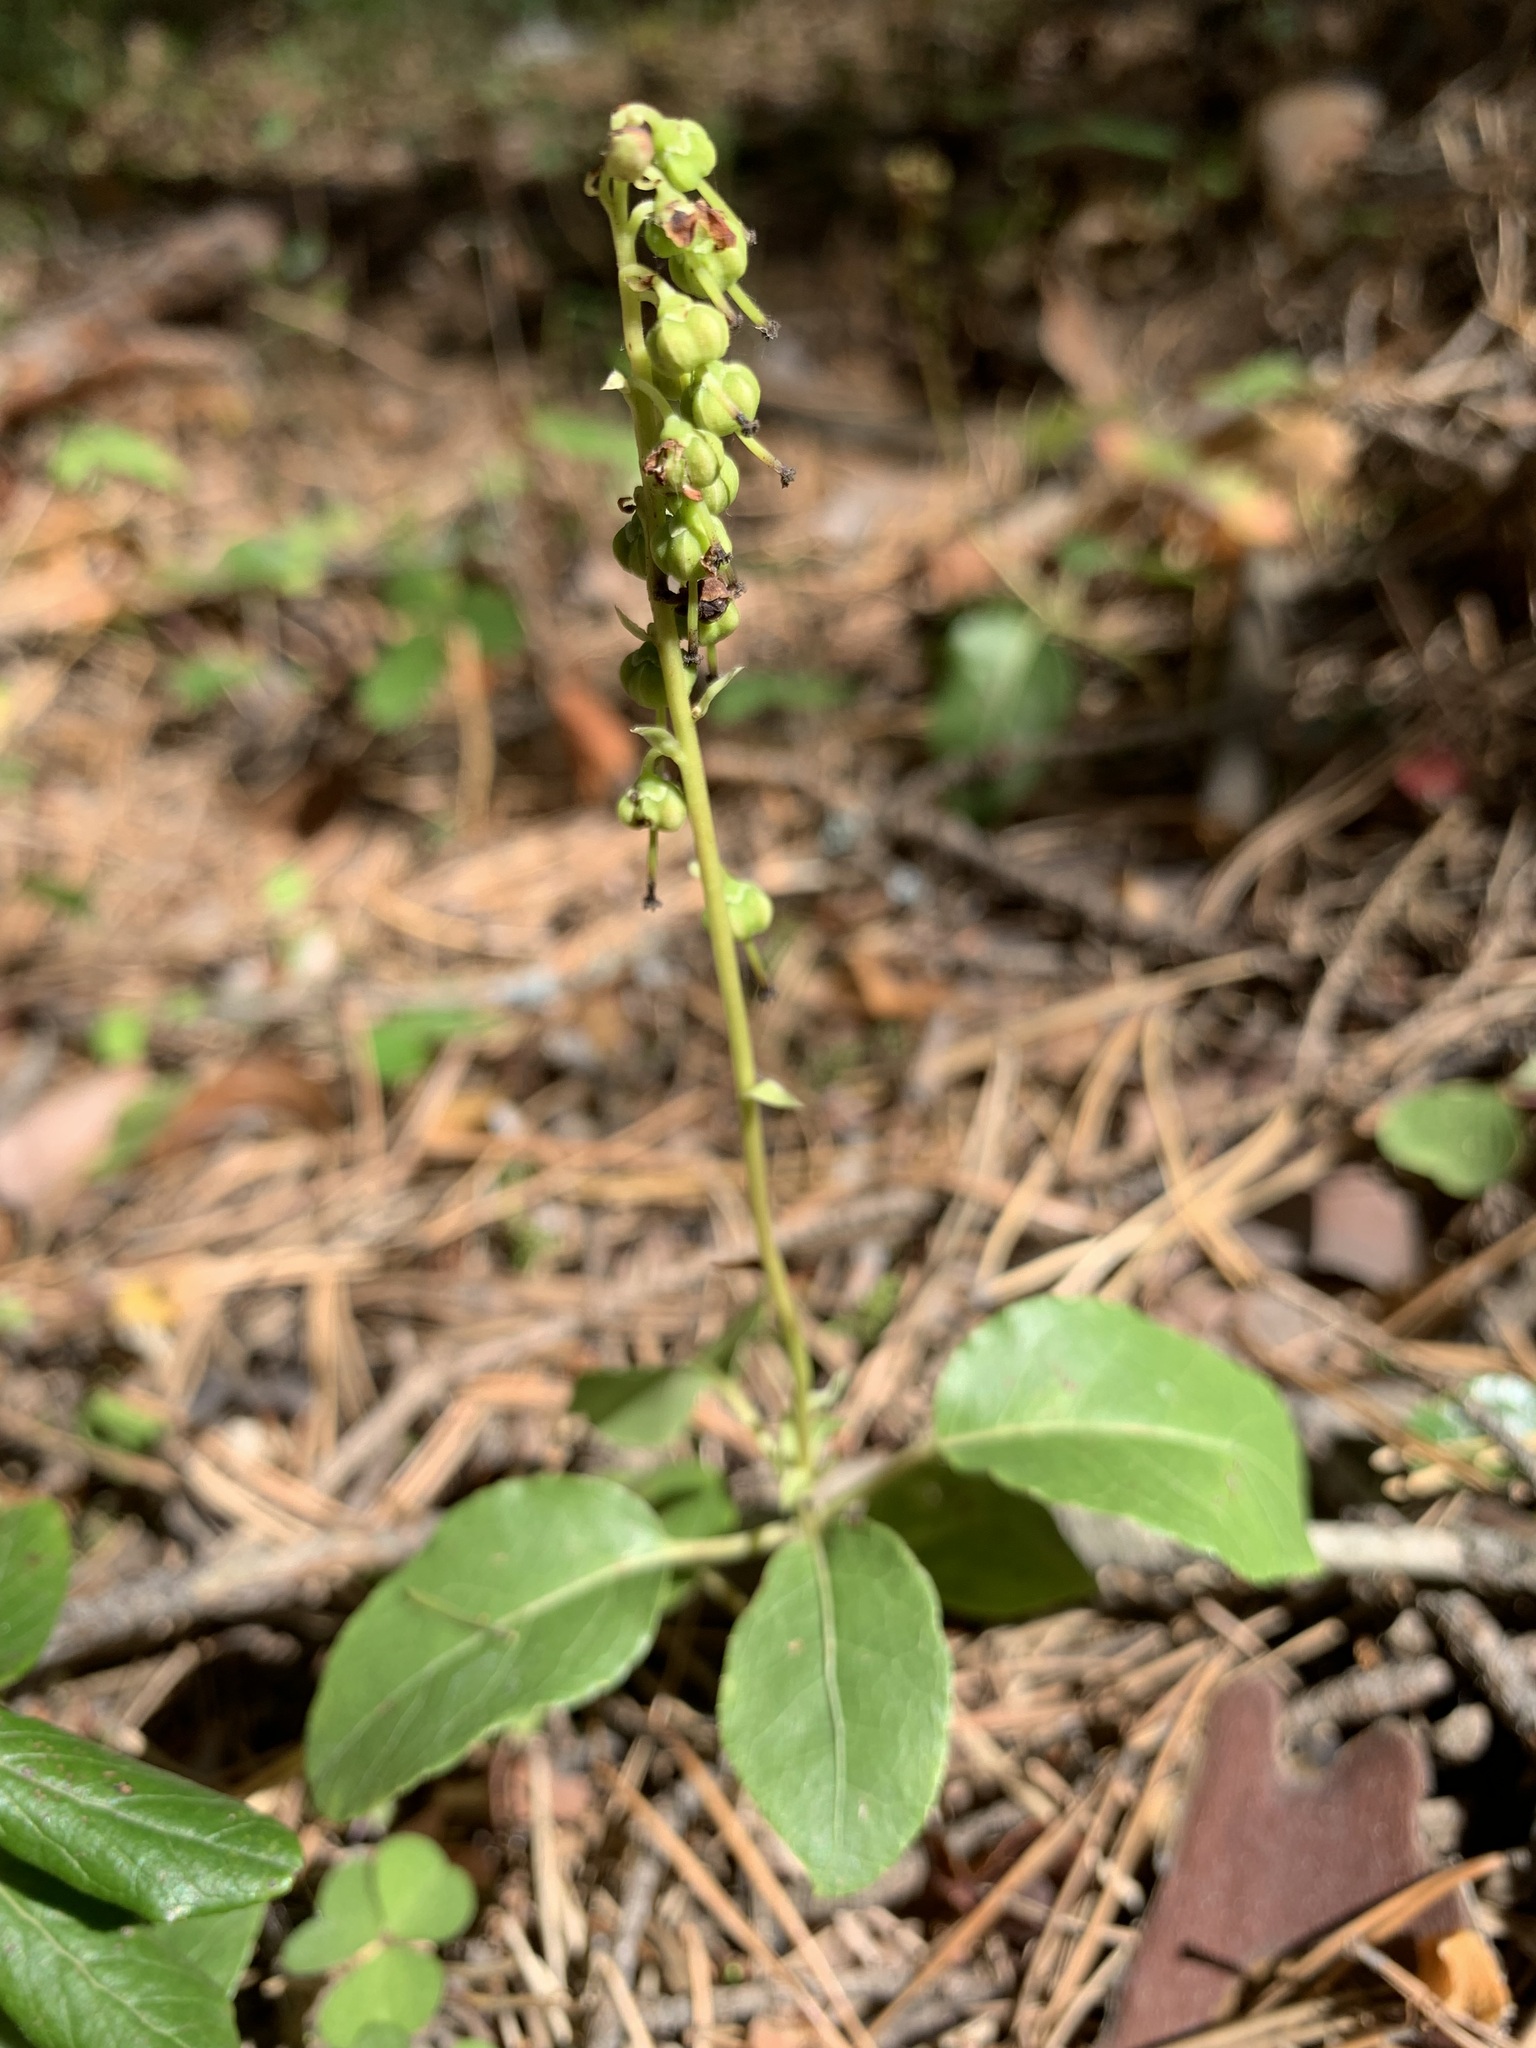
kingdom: Plantae
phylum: Tracheophyta
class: Magnoliopsida
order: Ericales
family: Ericaceae
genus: Orthilia
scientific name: Orthilia secunda
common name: One-sided orthilia
